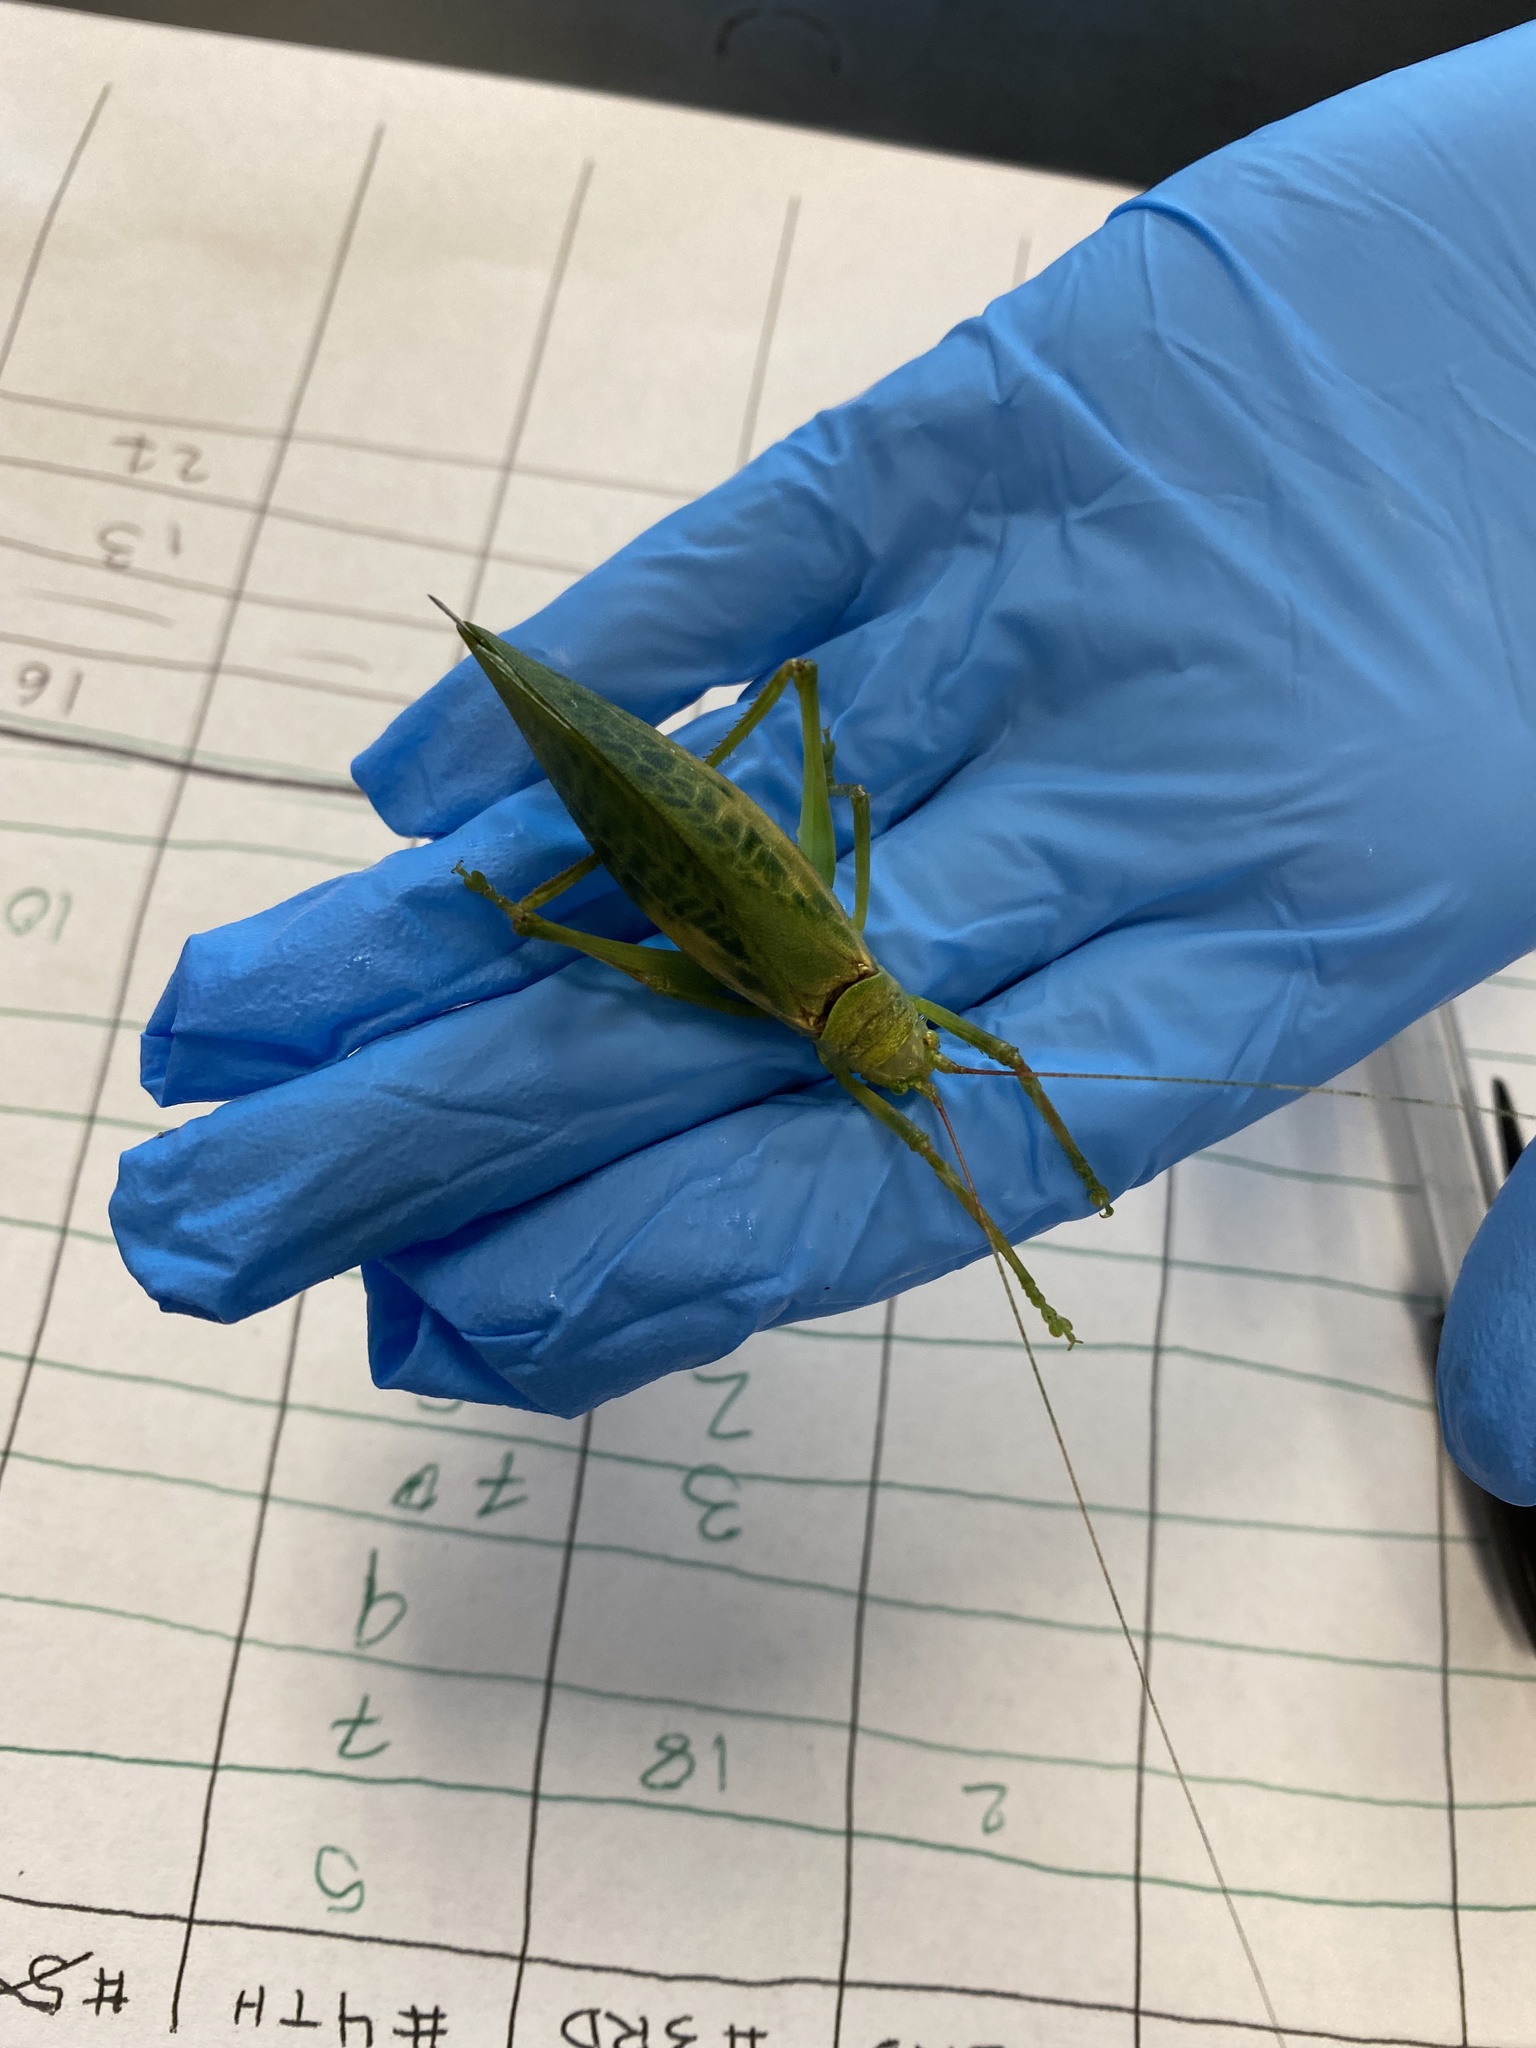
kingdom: Animalia
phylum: Arthropoda
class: Insecta
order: Orthoptera
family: Tettigoniidae
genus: Pterophylla
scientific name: Pterophylla camellifolia
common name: Common true katydid
